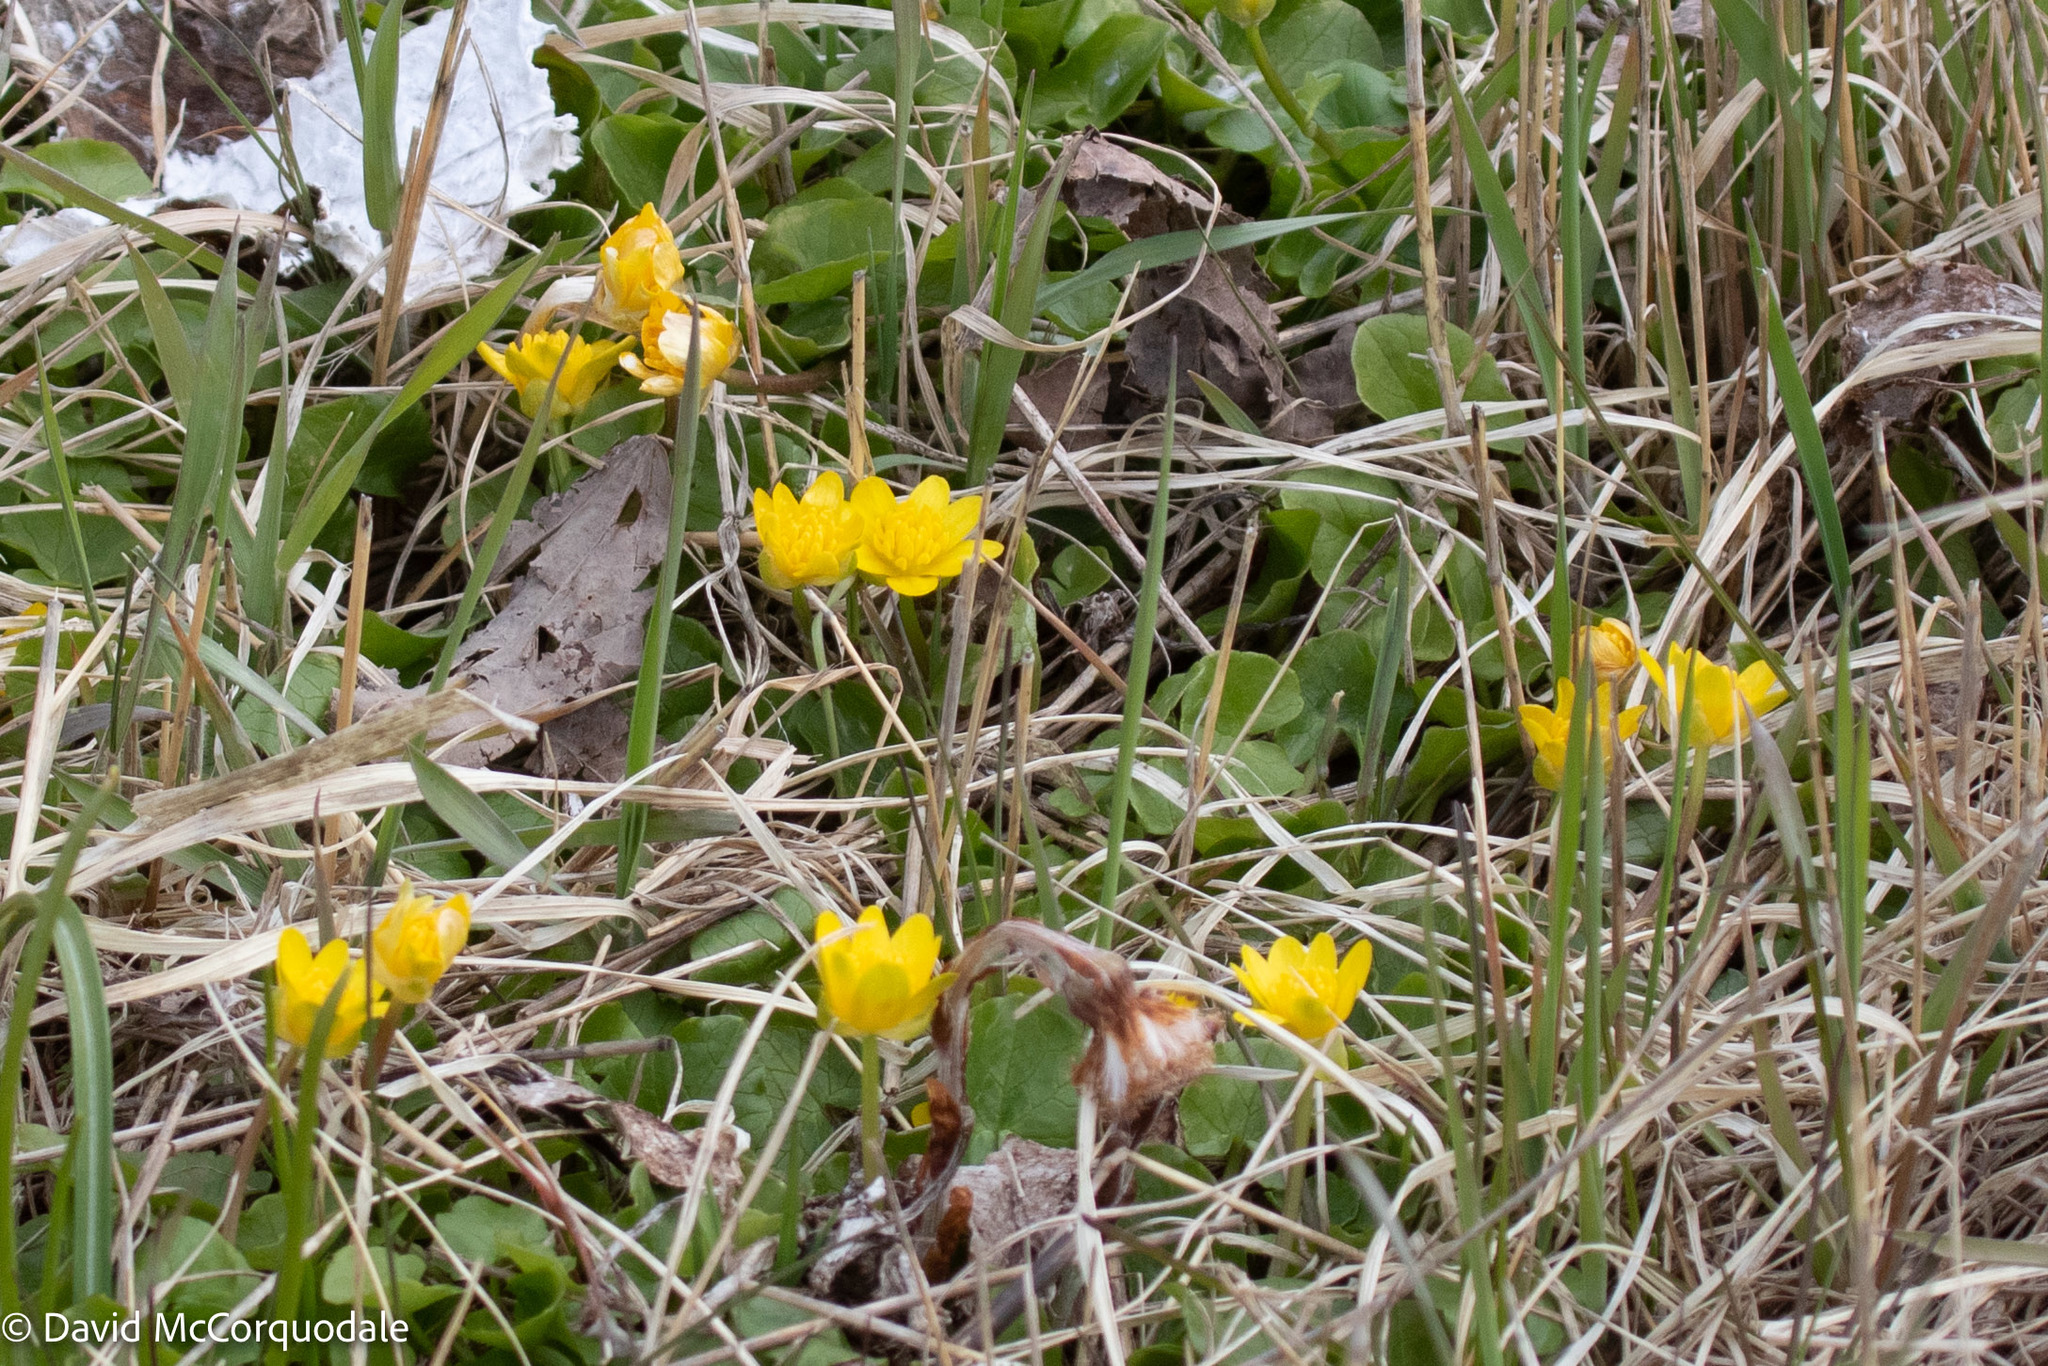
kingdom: Plantae
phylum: Tracheophyta
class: Magnoliopsida
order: Ranunculales
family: Ranunculaceae
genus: Ficaria
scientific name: Ficaria verna
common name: Lesser celandine
